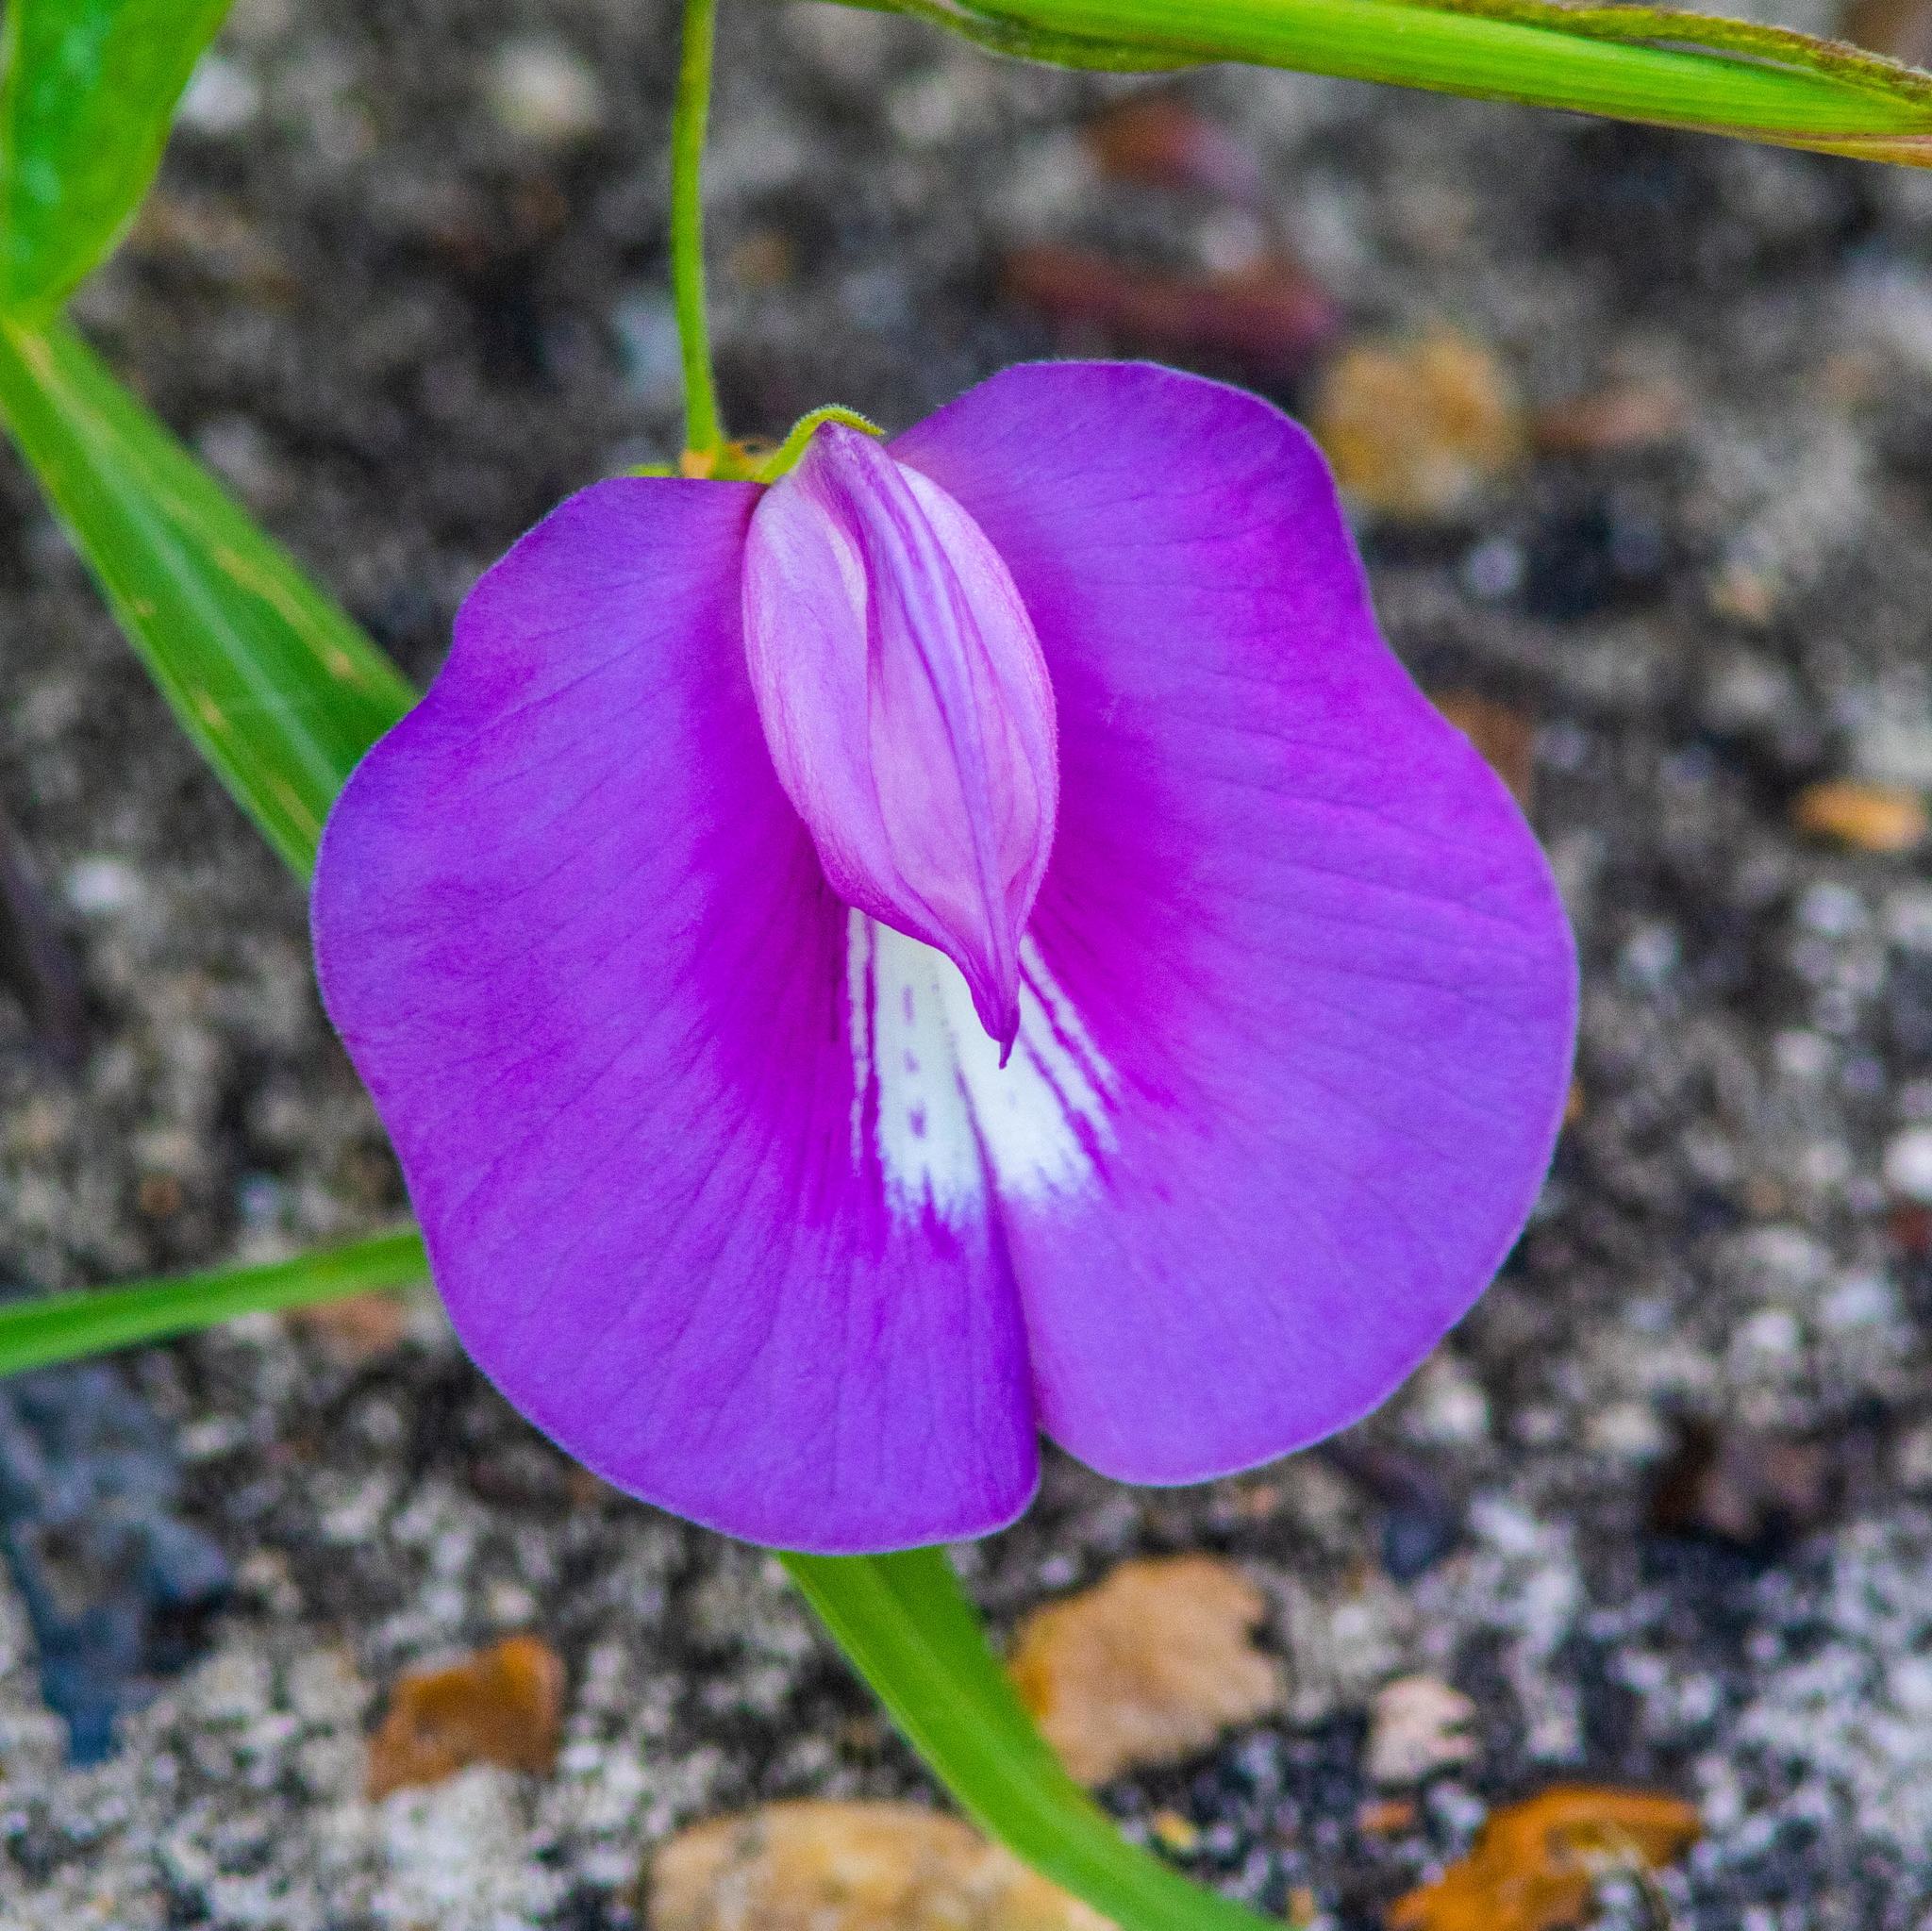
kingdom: Plantae
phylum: Tracheophyta
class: Magnoliopsida
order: Fabales
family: Fabaceae
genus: Centrosema
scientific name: Centrosema virginianum
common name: Butterfly-pea
